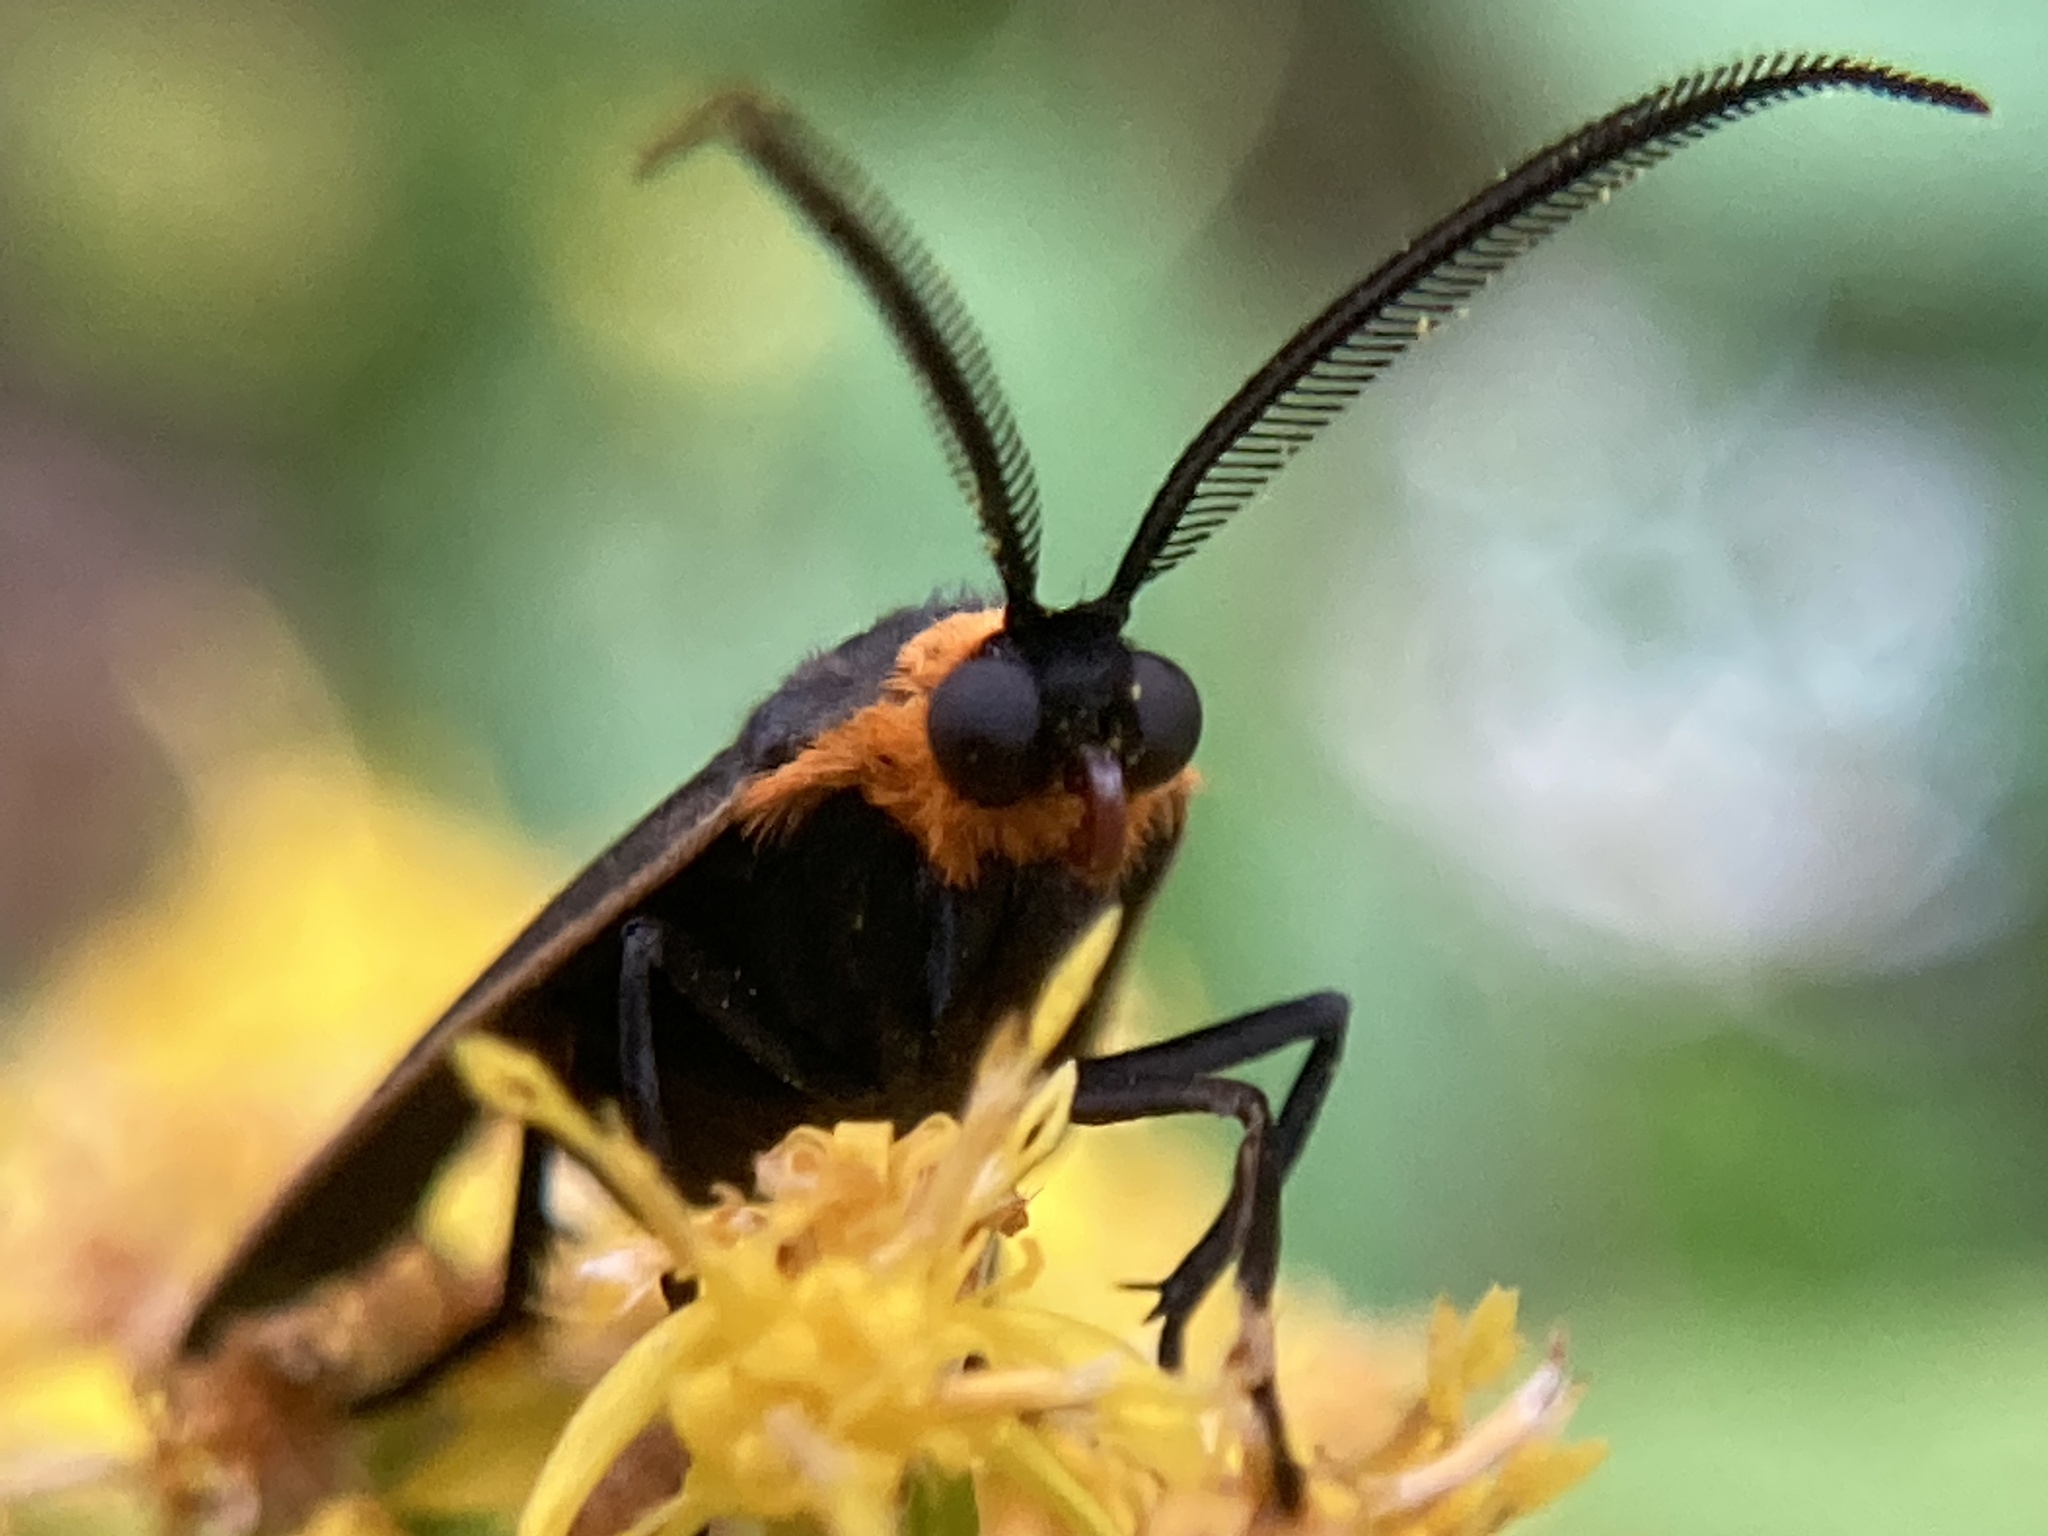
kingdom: Animalia
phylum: Arthropoda
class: Insecta
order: Lepidoptera
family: Erebidae
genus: Cisseps
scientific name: Cisseps fulvicollis
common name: Yellow-collared scape moth
